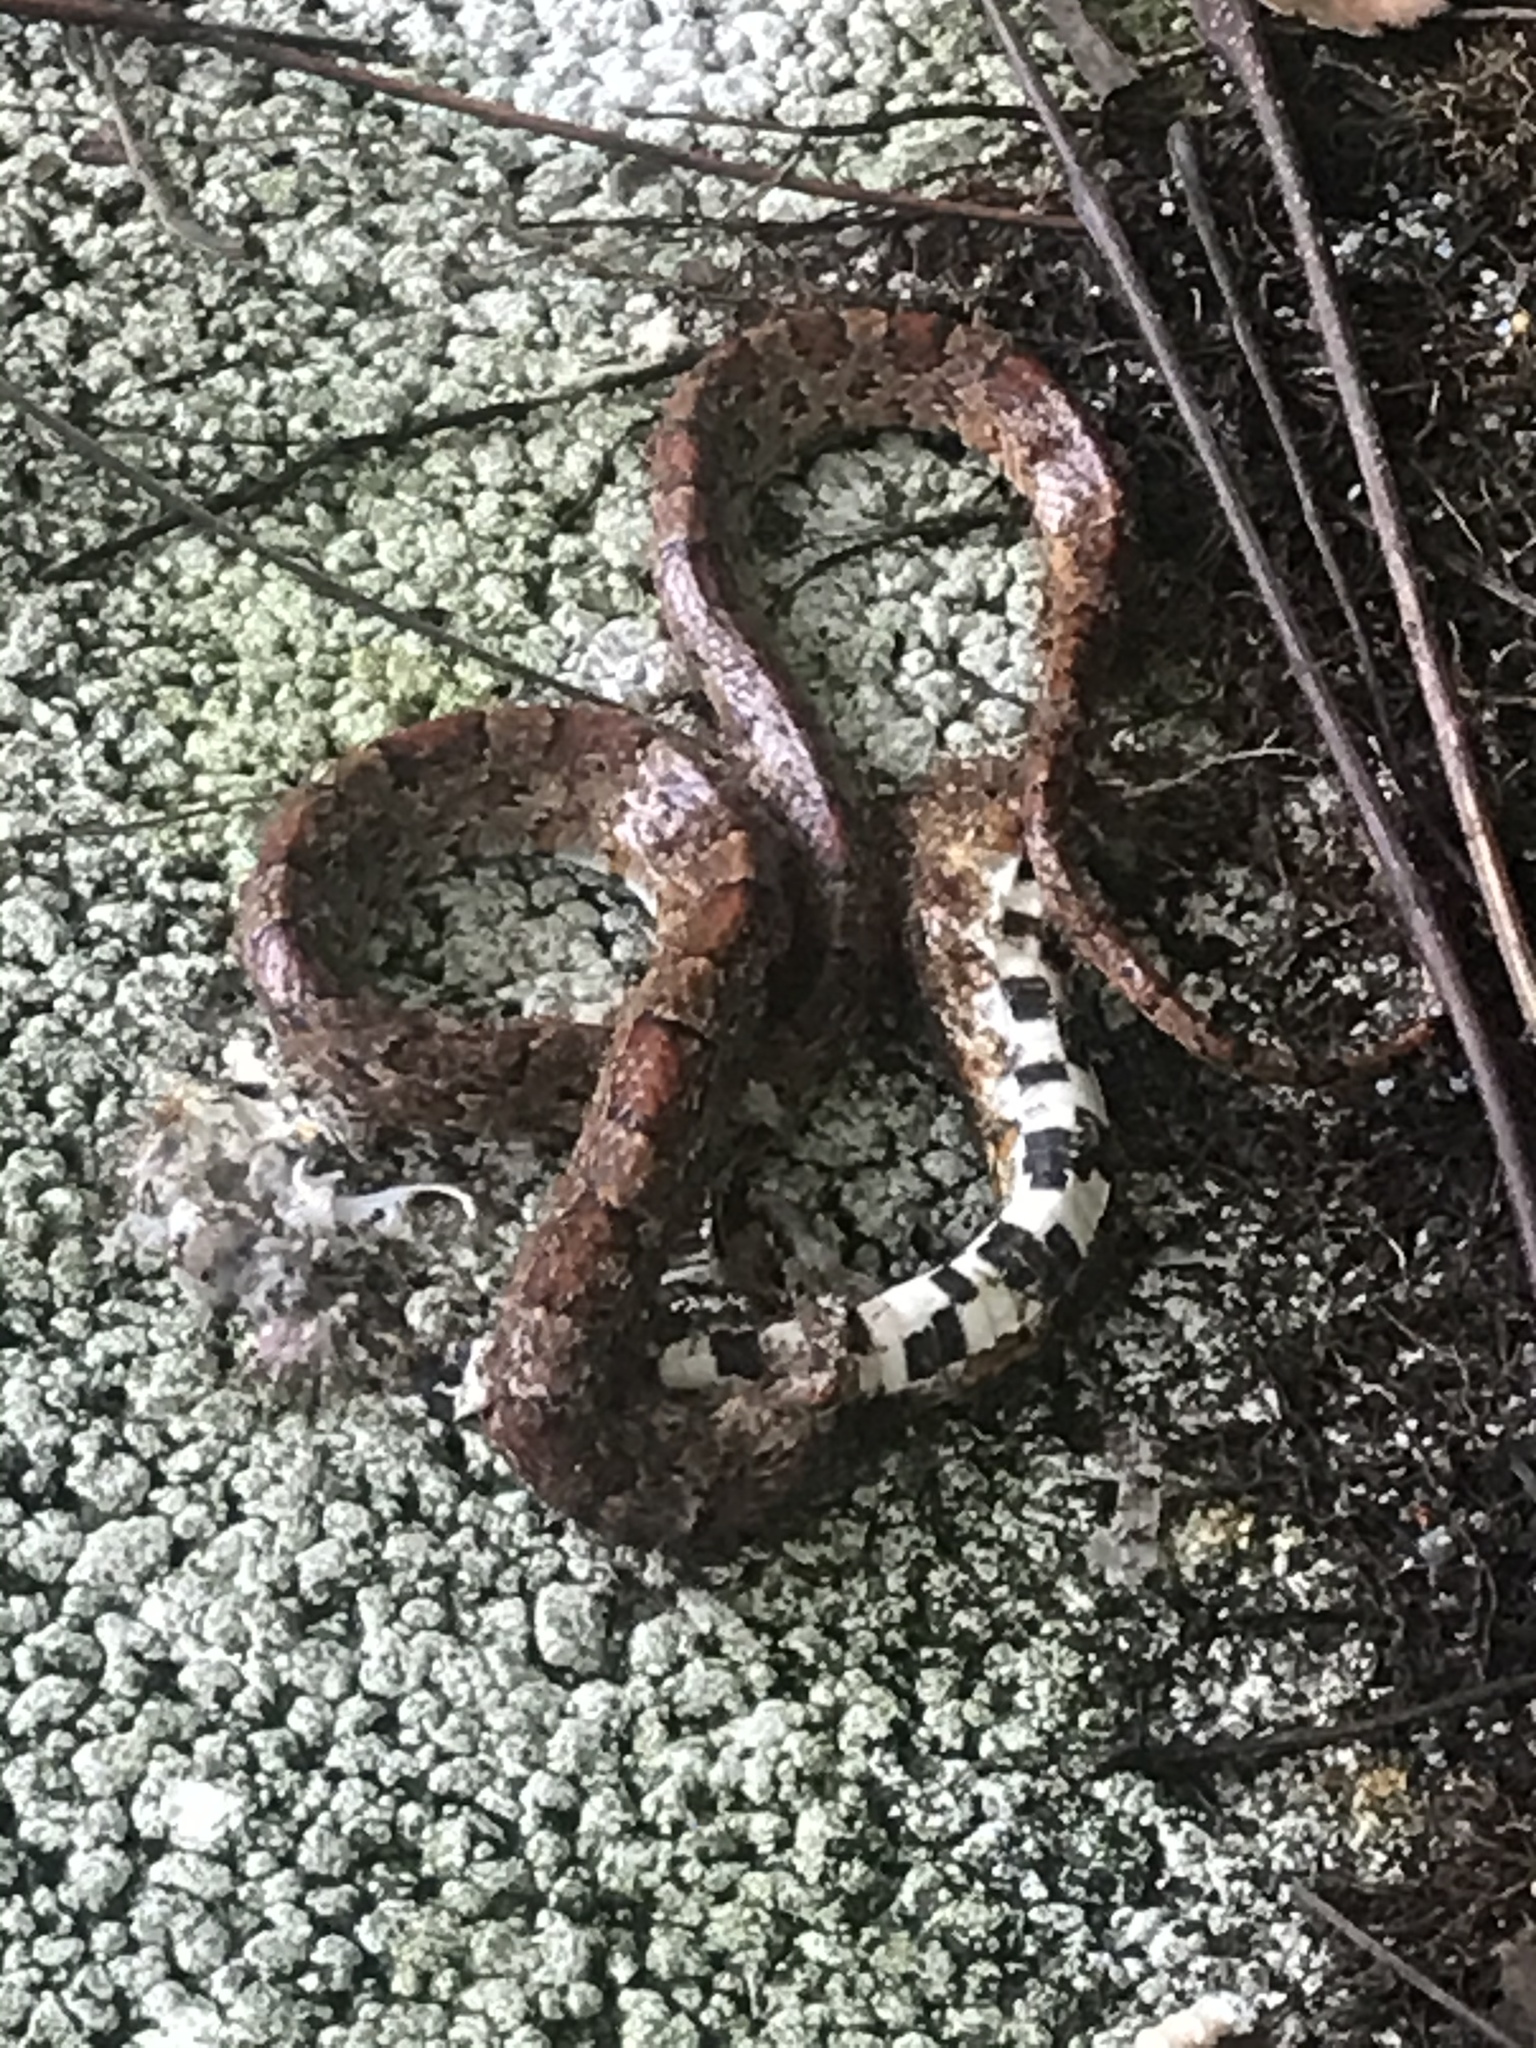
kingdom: Animalia
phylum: Chordata
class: Squamata
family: Colubridae
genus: Pantherophis
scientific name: Pantherophis guttatus
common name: Red cornsnake
